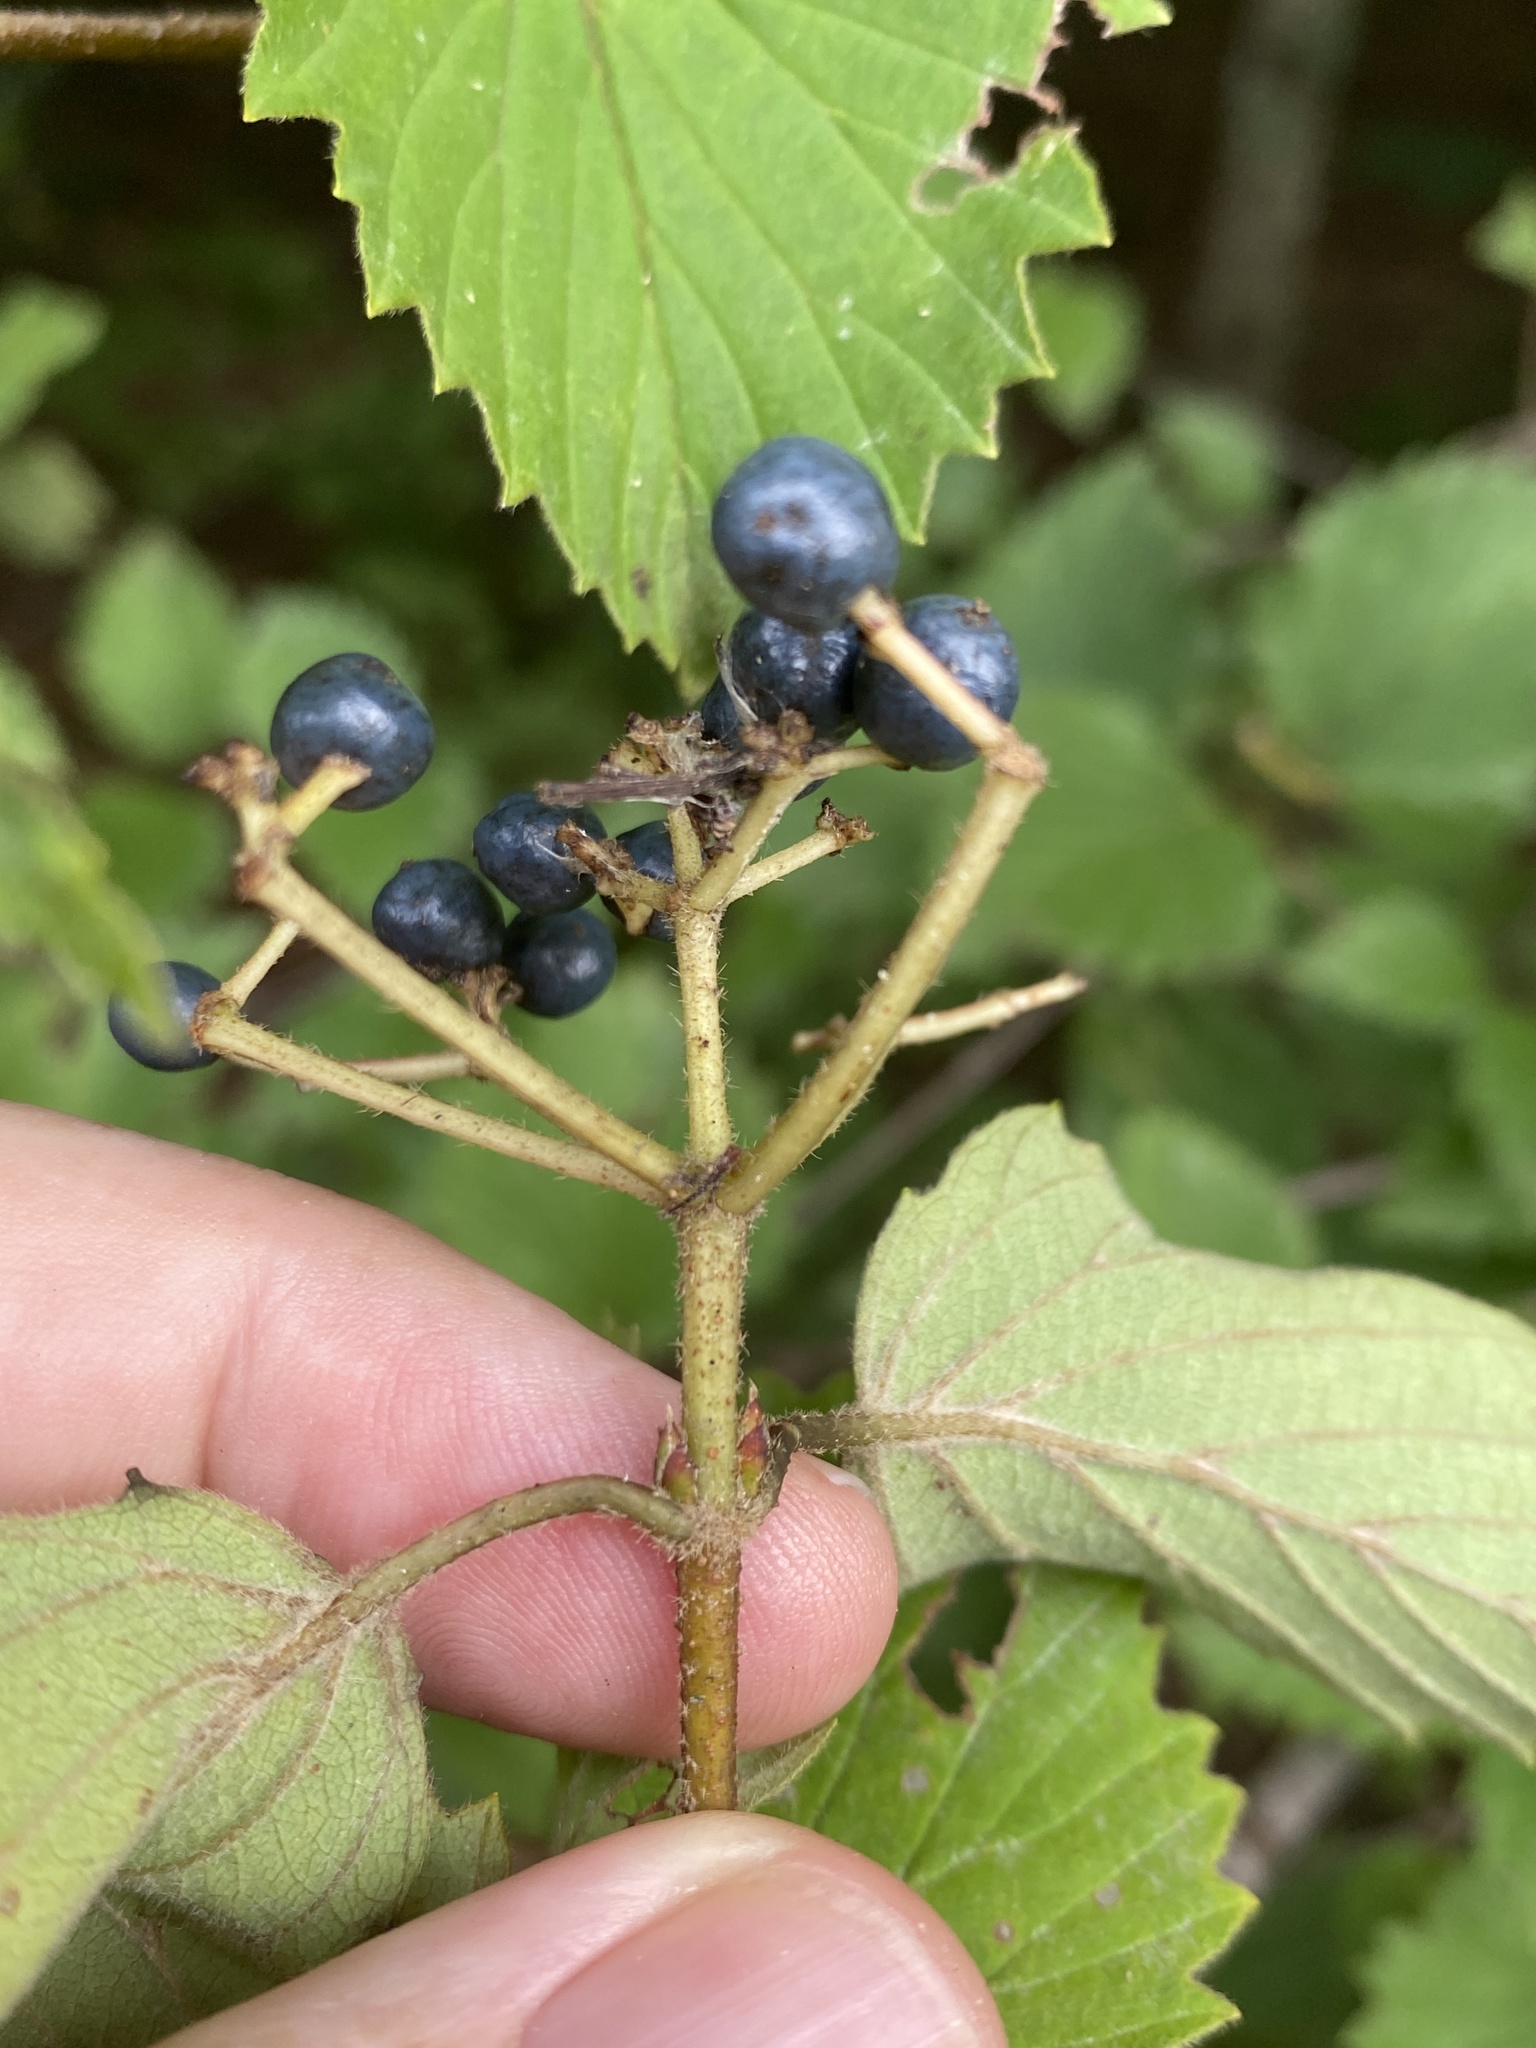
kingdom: Plantae
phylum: Tracheophyta
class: Magnoliopsida
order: Dipsacales
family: Viburnaceae
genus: Viburnum
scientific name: Viburnum dentatum
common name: Arrow-wood
